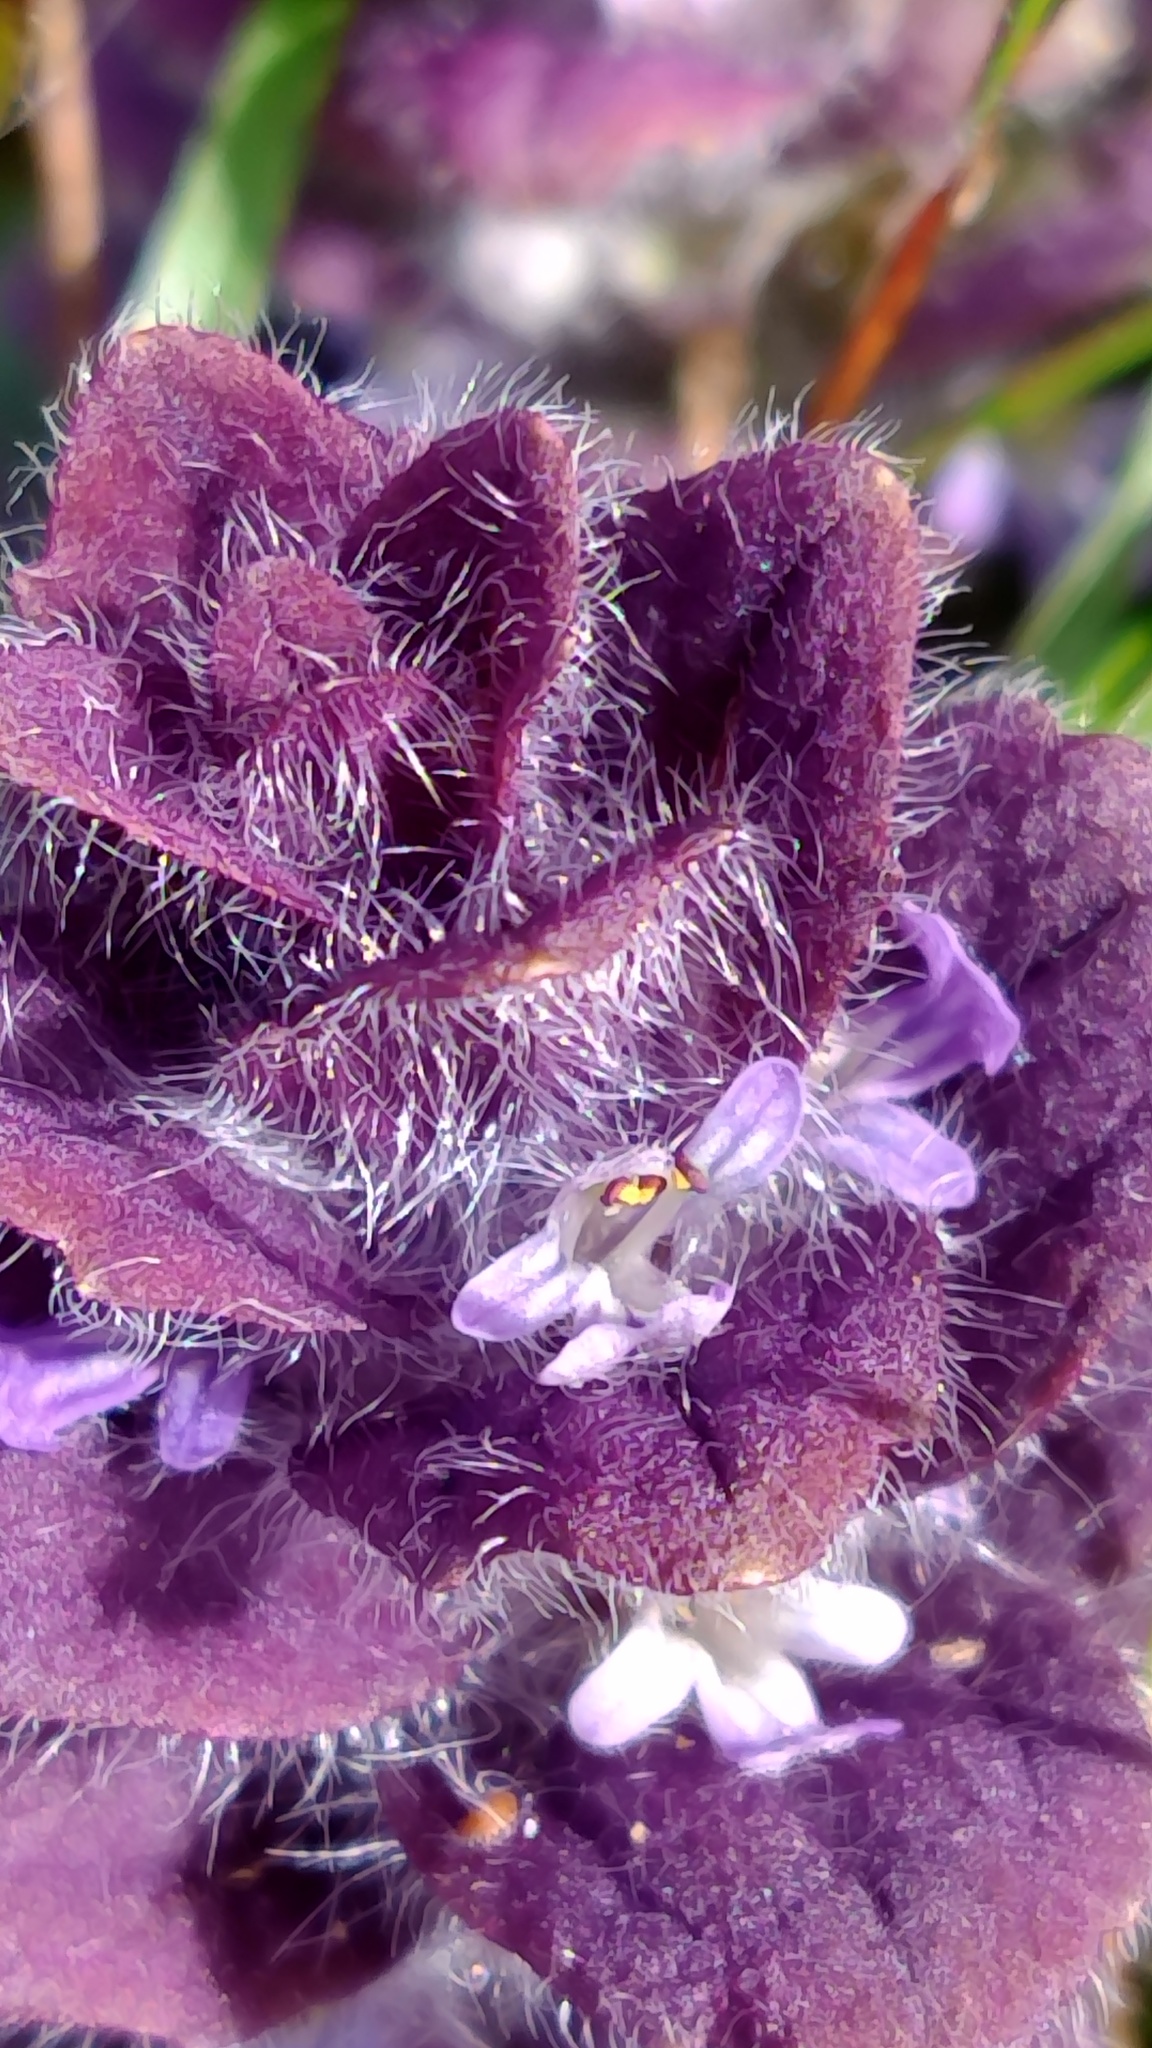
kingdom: Plantae
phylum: Tracheophyta
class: Magnoliopsida
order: Lamiales
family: Lamiaceae
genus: Ajuga
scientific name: Ajuga pyramidalis
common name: Pyramid bugle
